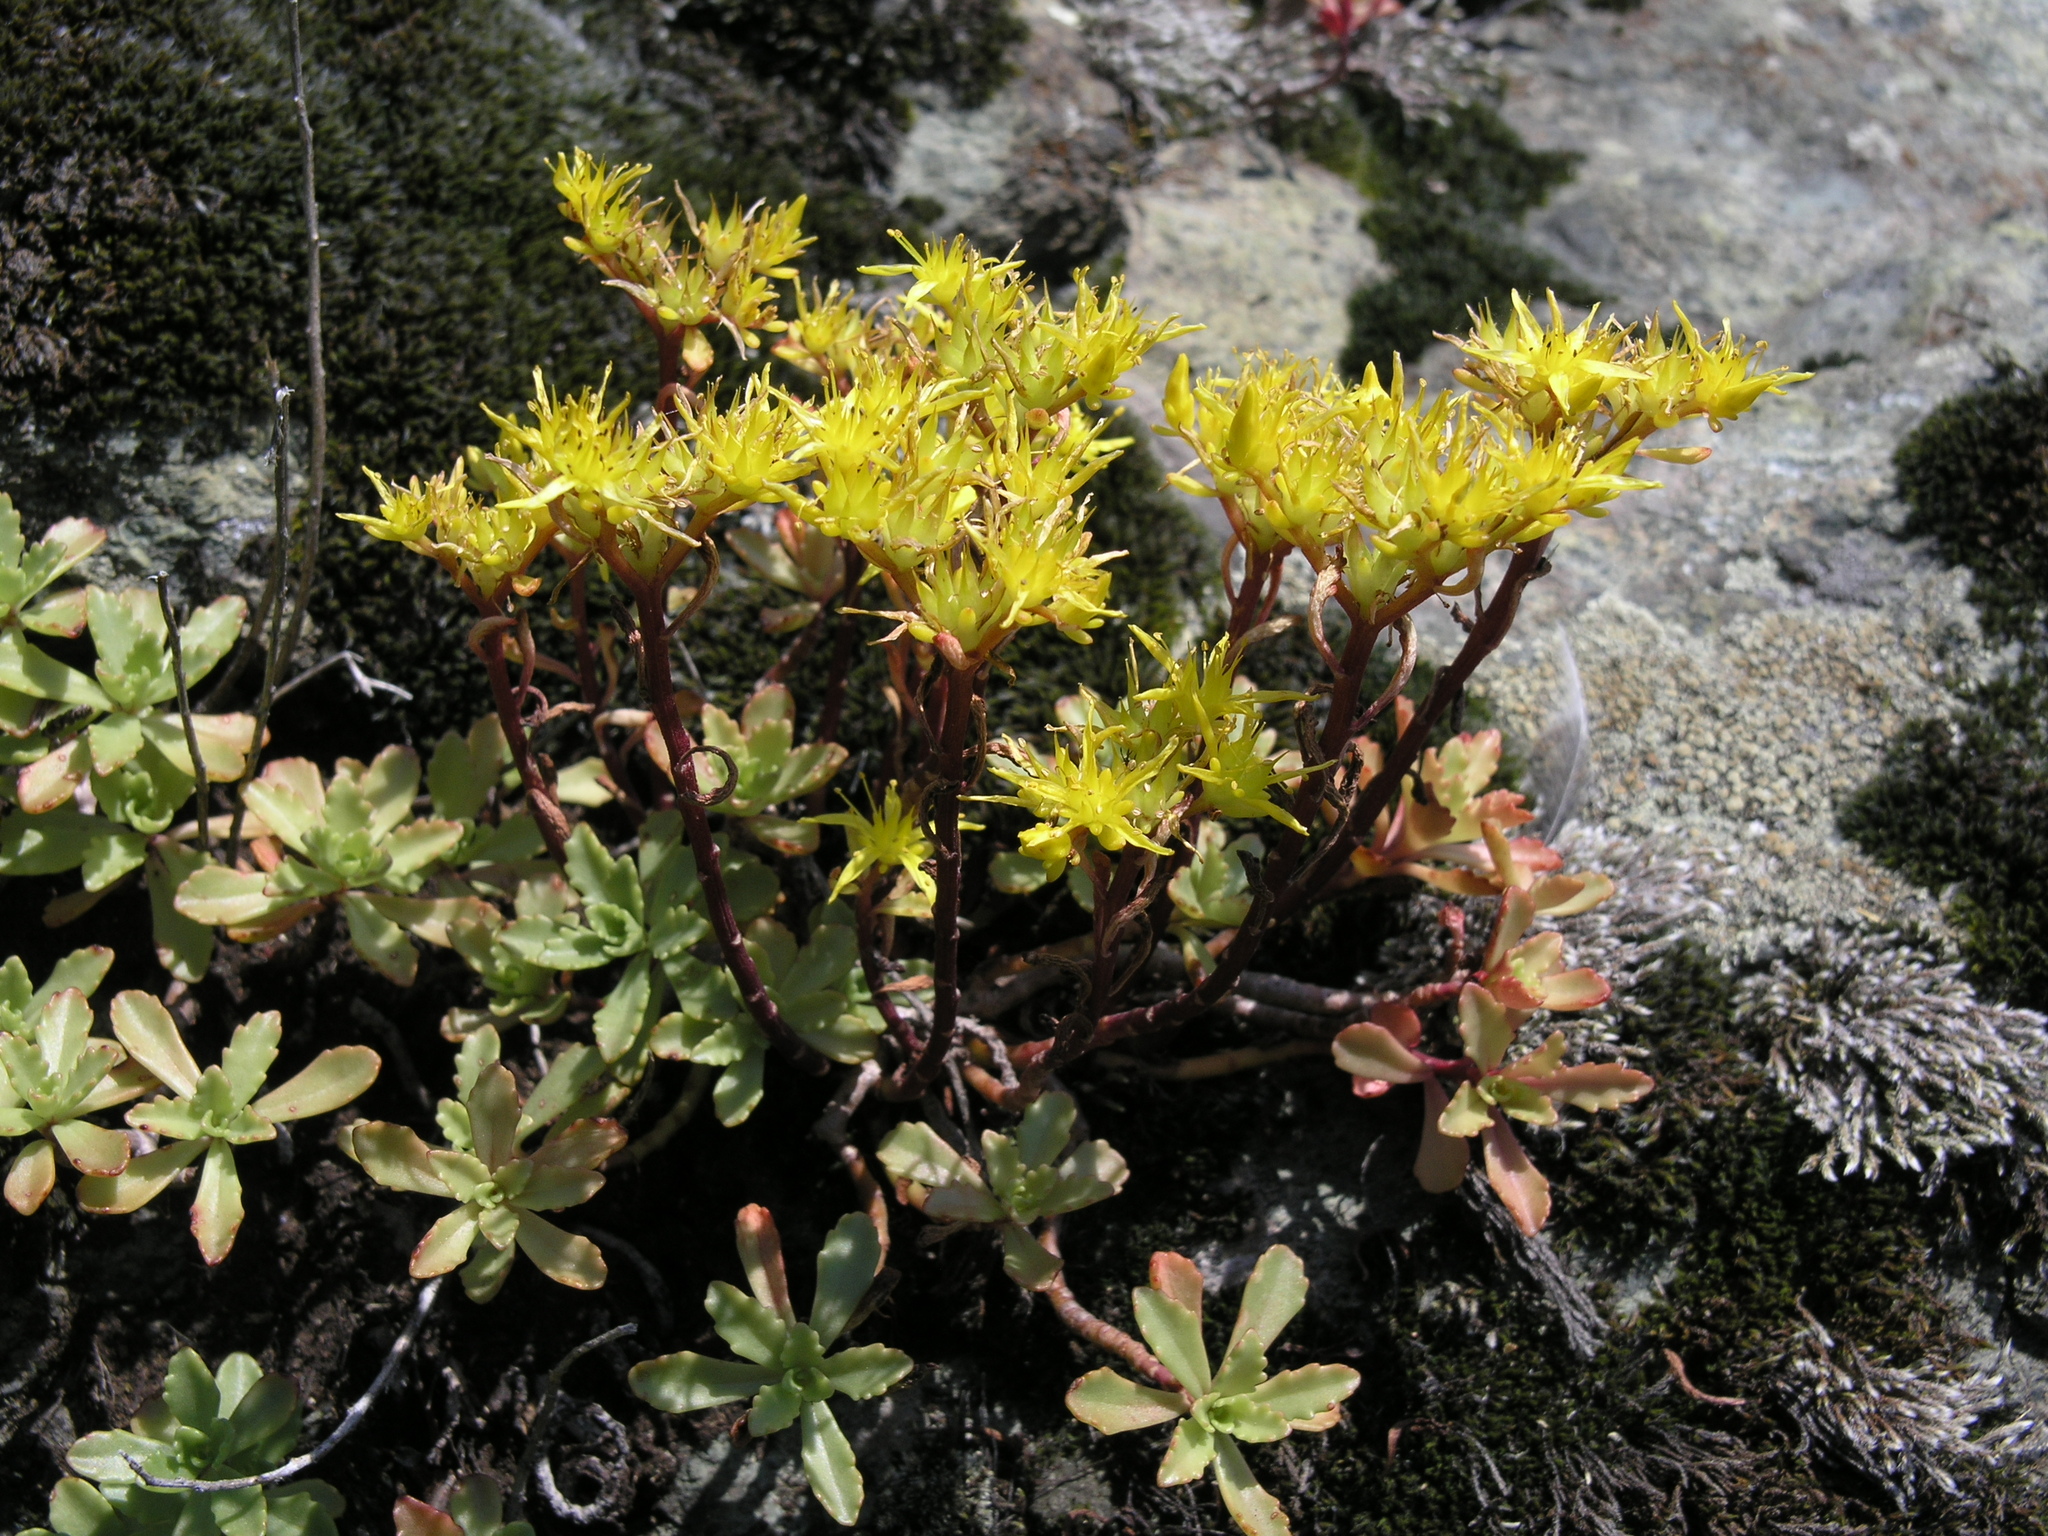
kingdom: Plantae
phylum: Tracheophyta
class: Magnoliopsida
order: Saxifragales
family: Crassulaceae
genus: Phedimus
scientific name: Phedimus hybridus
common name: Hybrid stonecrop
